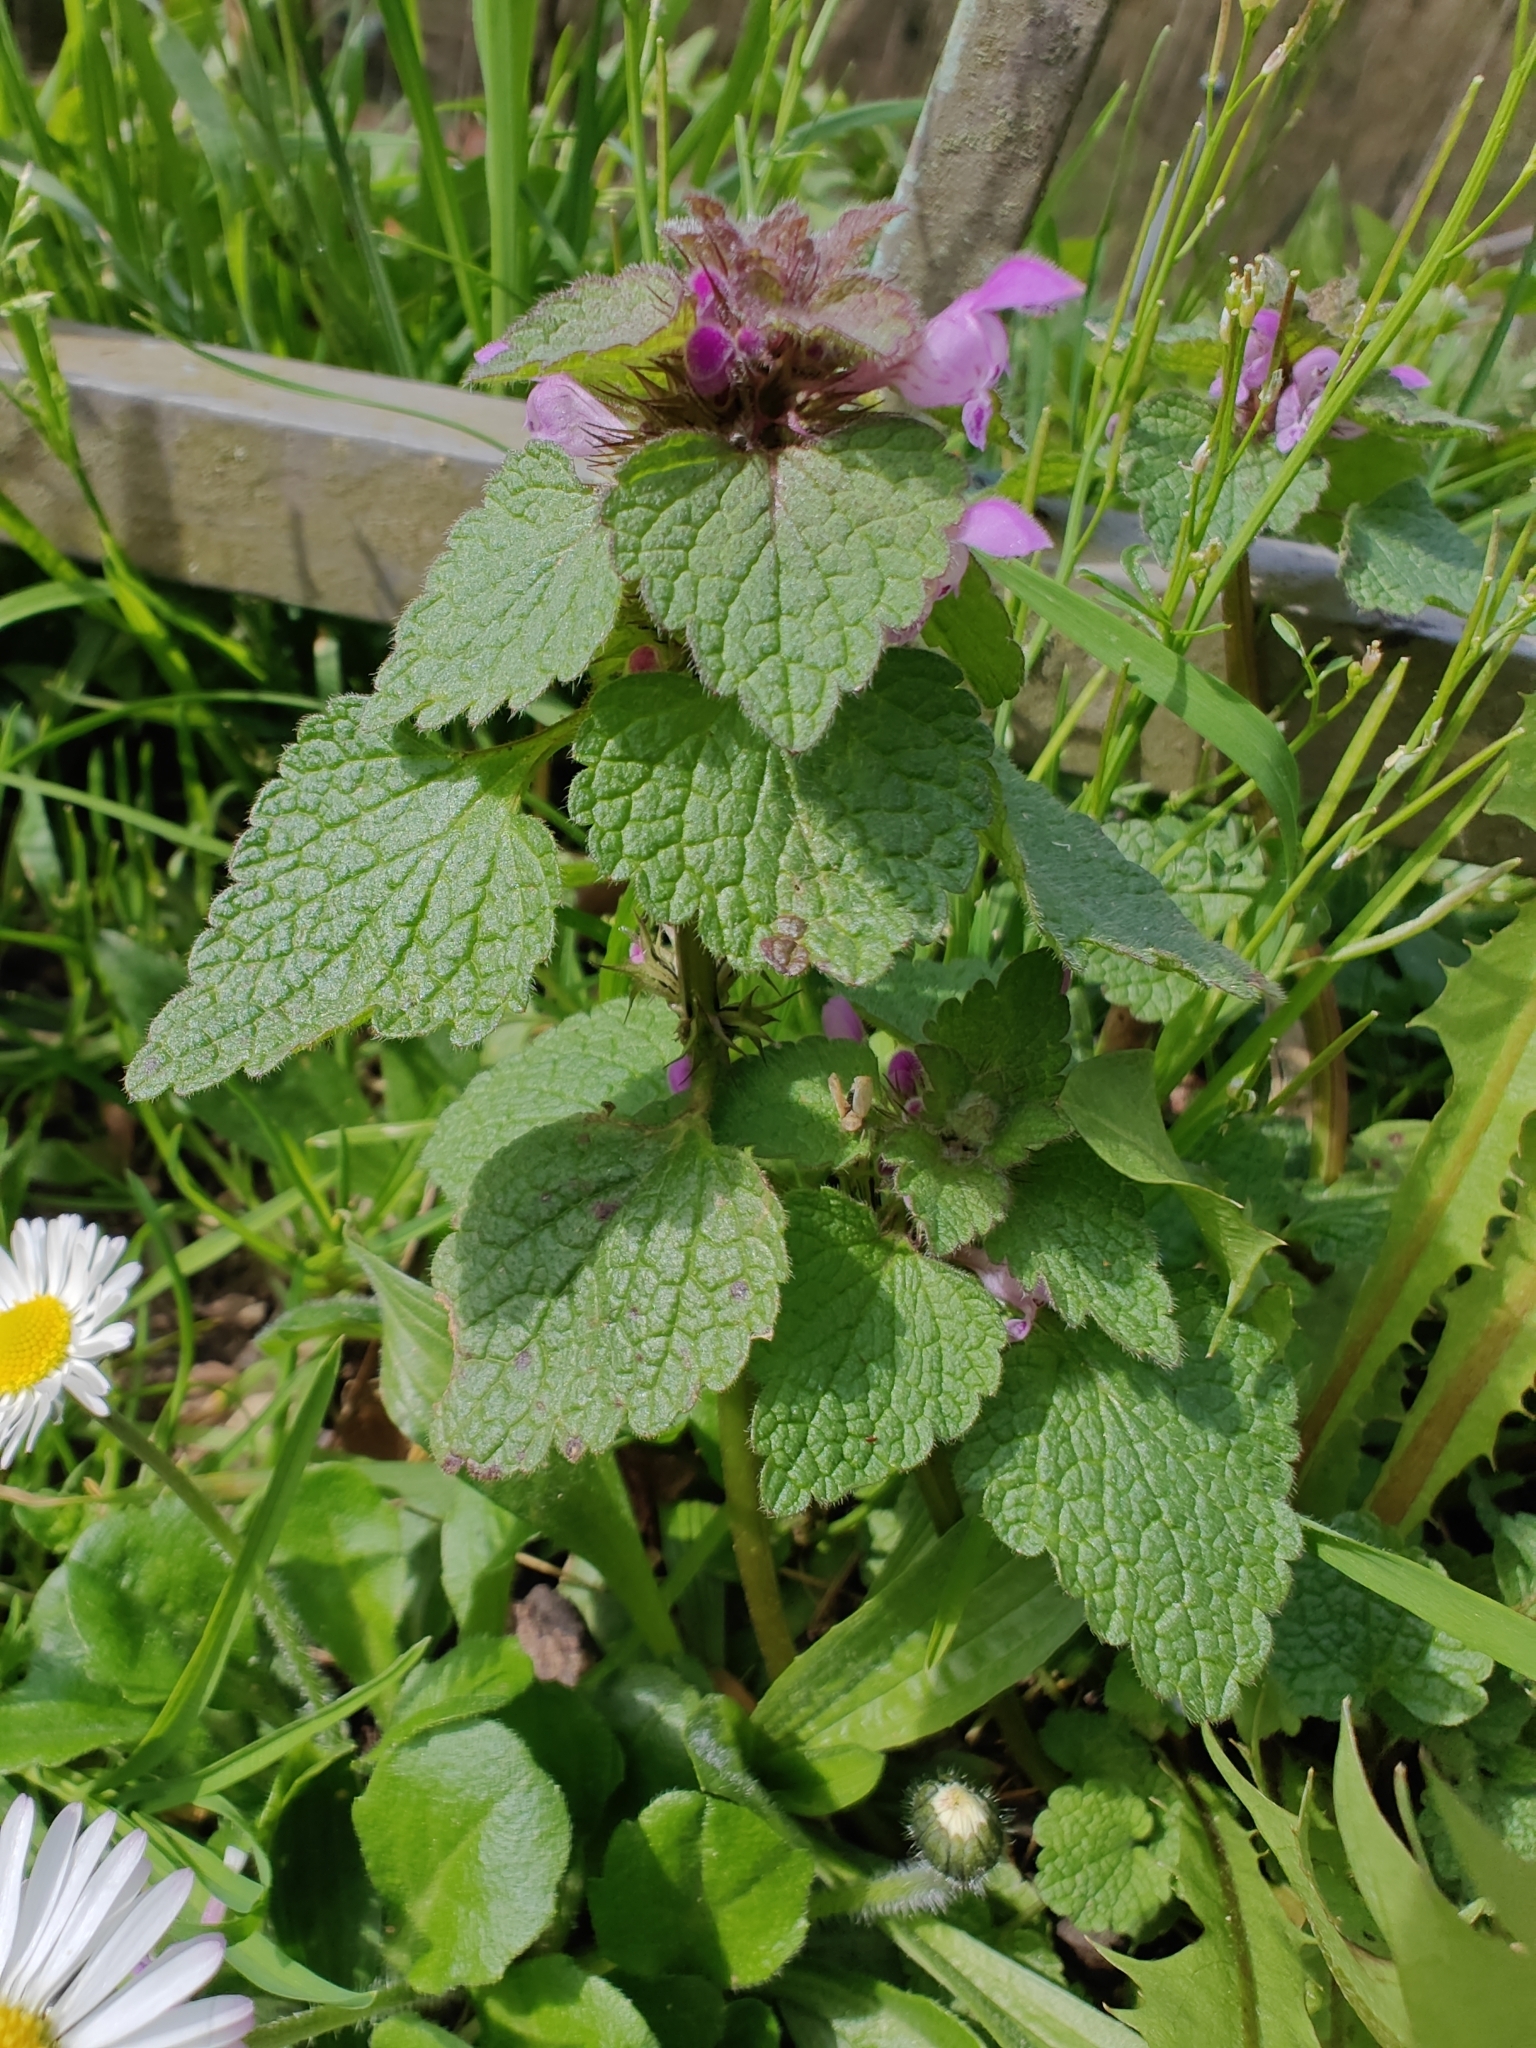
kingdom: Plantae
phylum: Tracheophyta
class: Magnoliopsida
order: Lamiales
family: Lamiaceae
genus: Lamium
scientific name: Lamium purpureum
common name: Red dead-nettle
